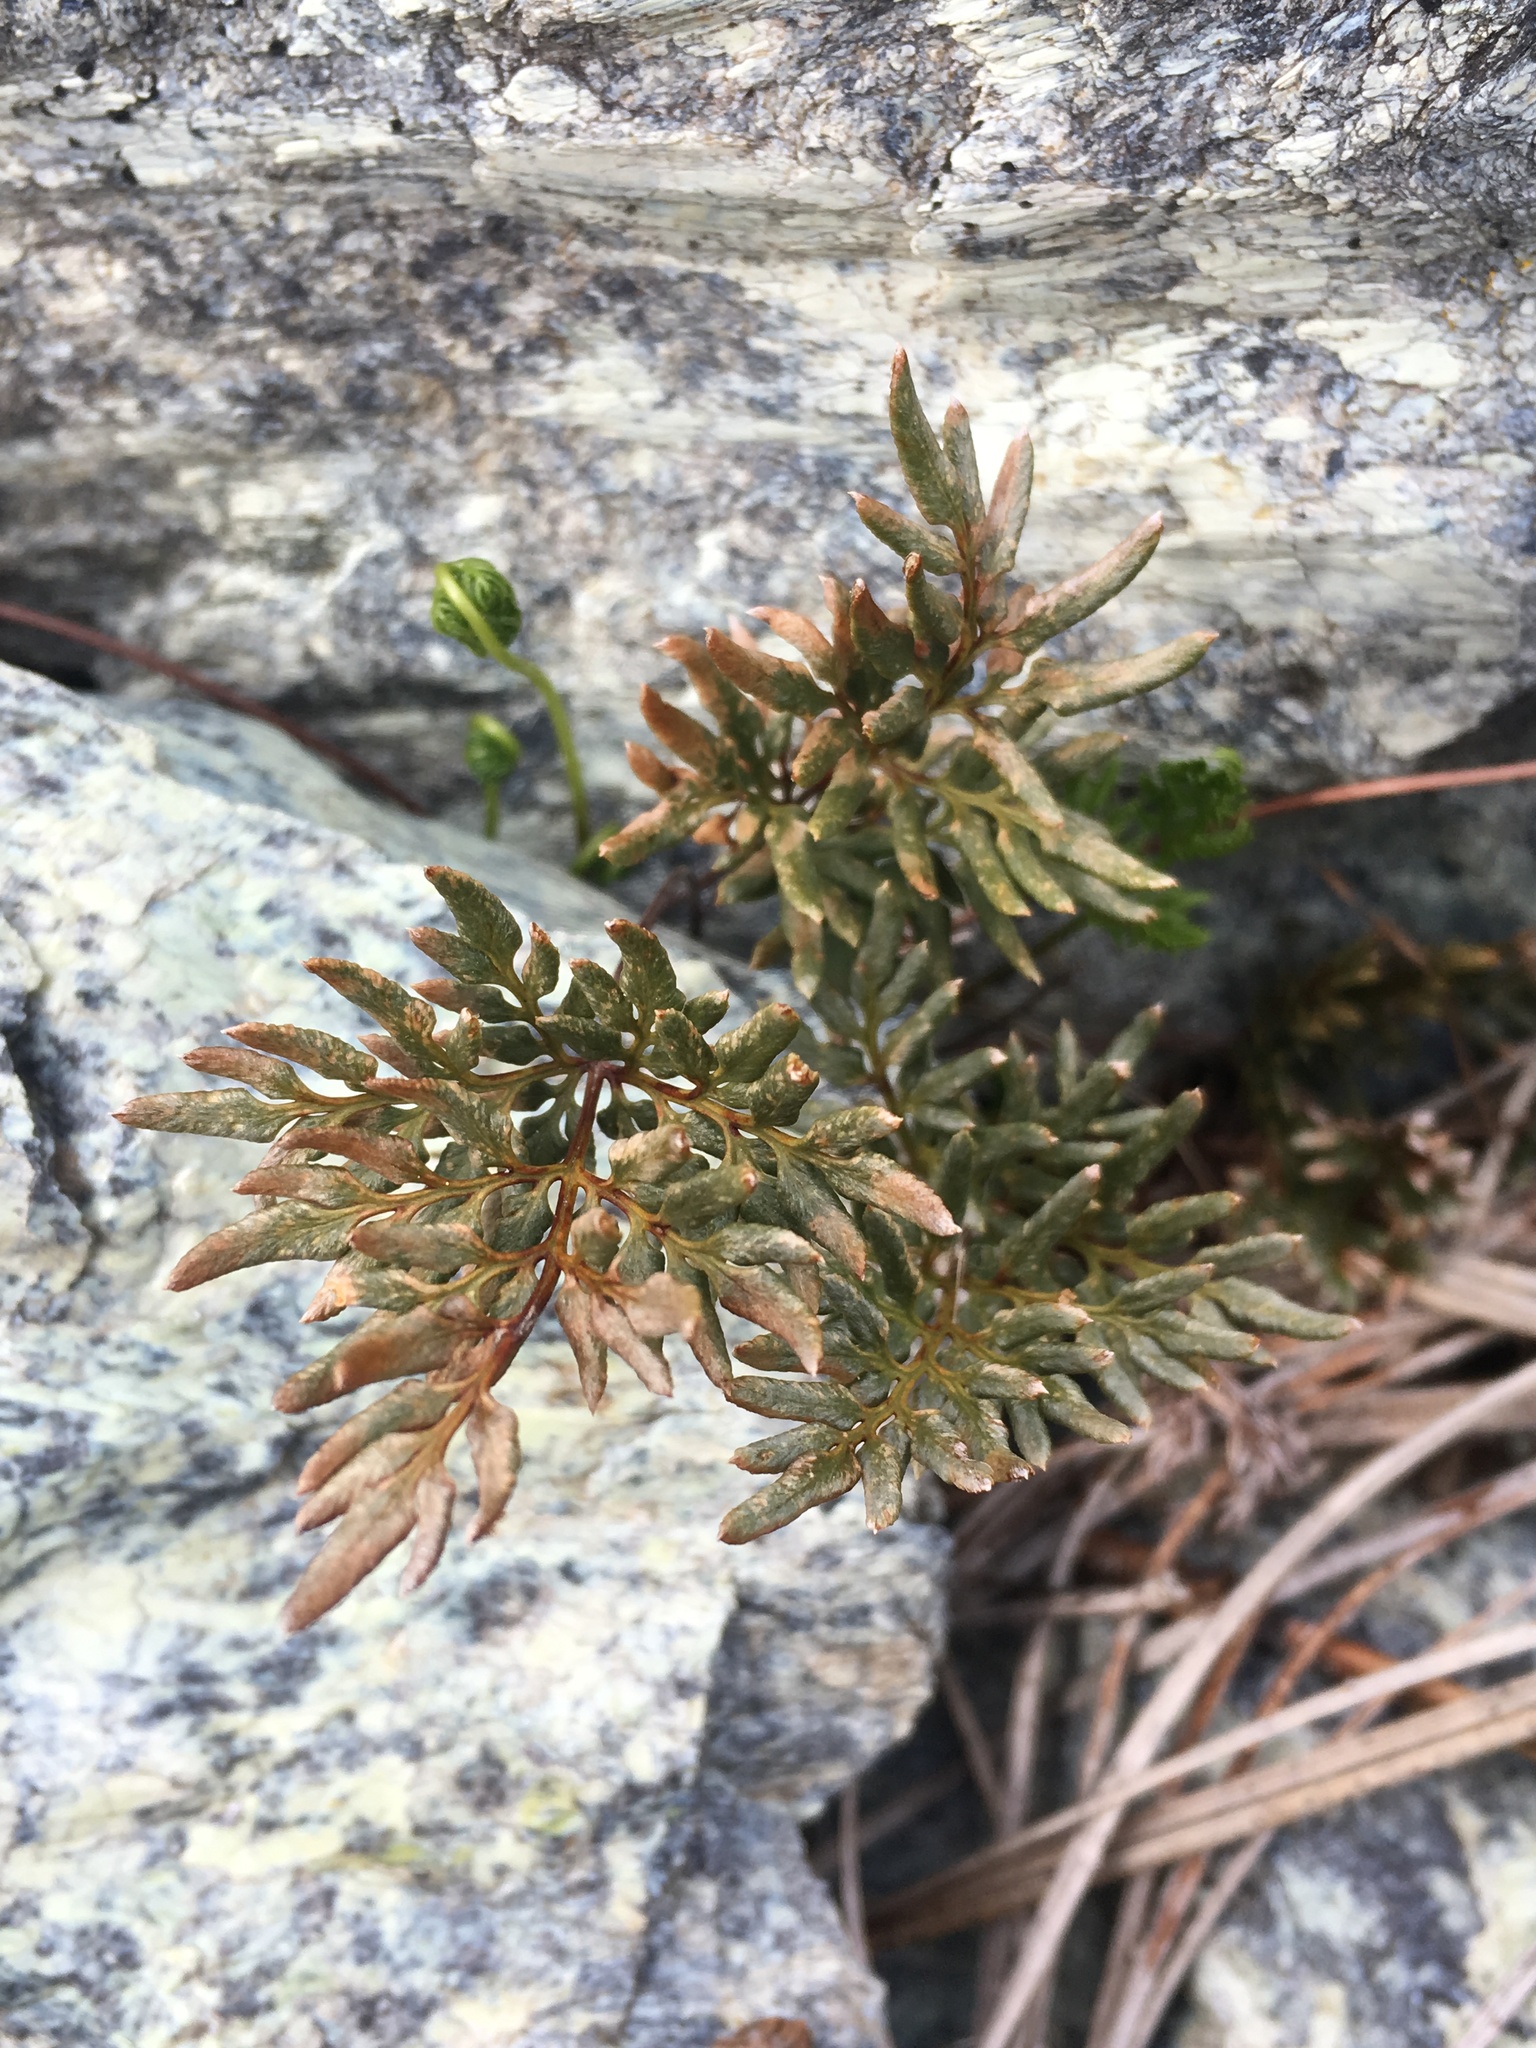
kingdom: Plantae
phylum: Tracheophyta
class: Polypodiopsida
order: Polypodiales
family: Pteridaceae
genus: Aspidotis
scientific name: Aspidotis densa
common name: Indian's dream
